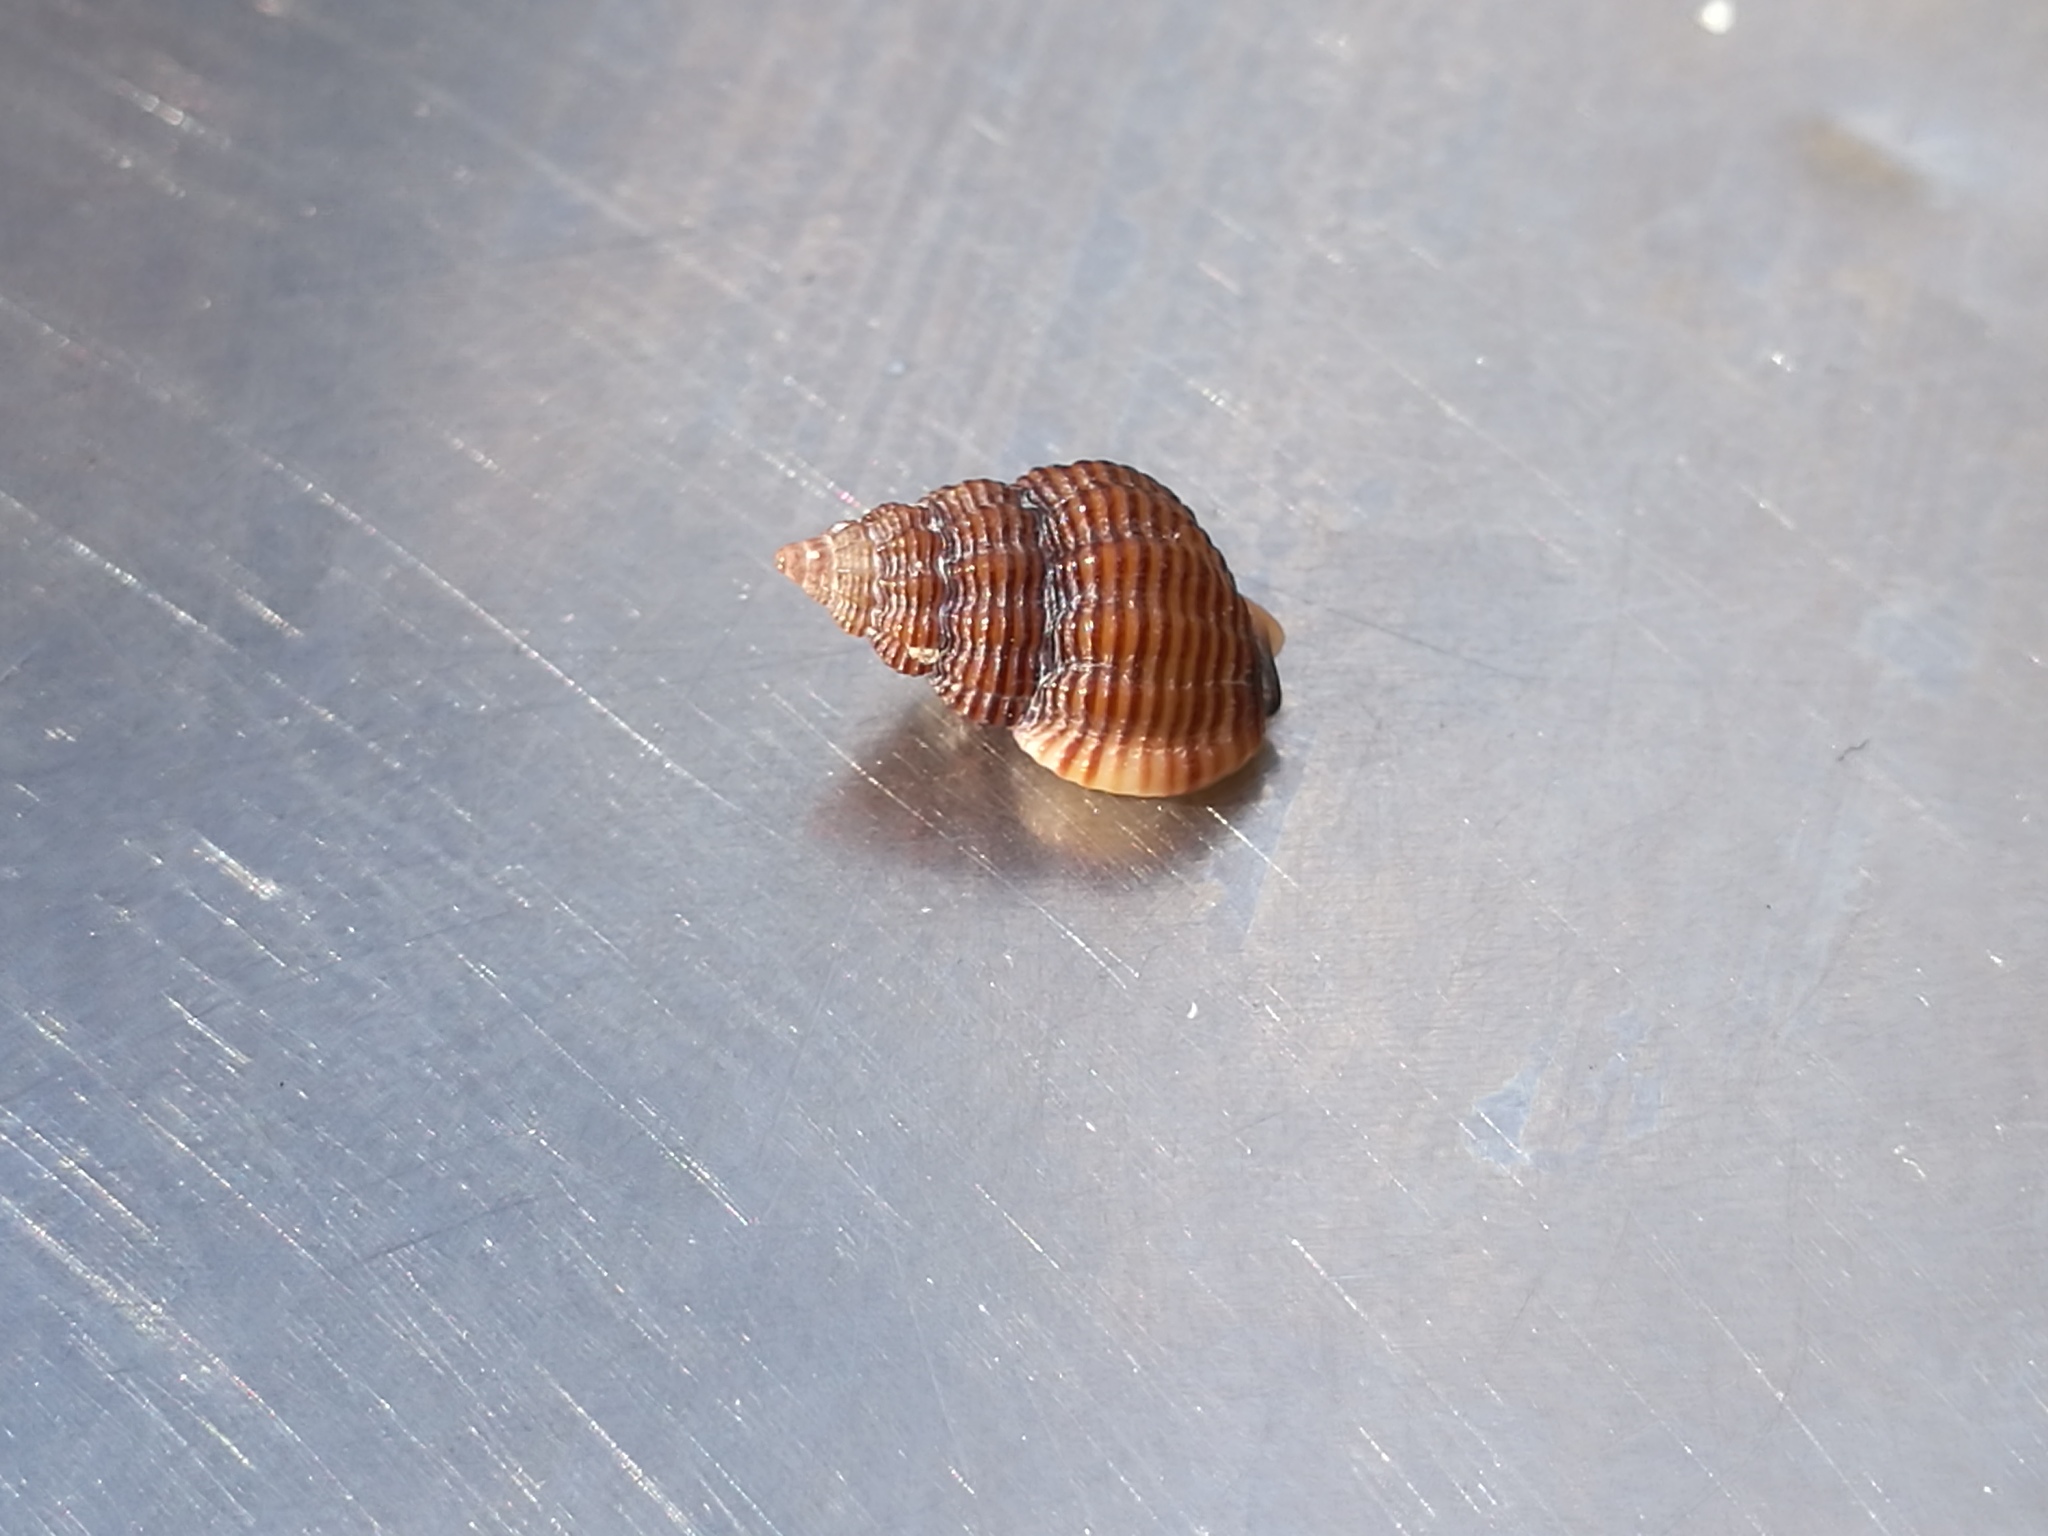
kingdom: Animalia
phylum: Mollusca
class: Gastropoda
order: Neogastropoda
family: Nassariidae
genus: Tritia
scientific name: Tritia incrassata
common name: Thick-lipped dog whelk
